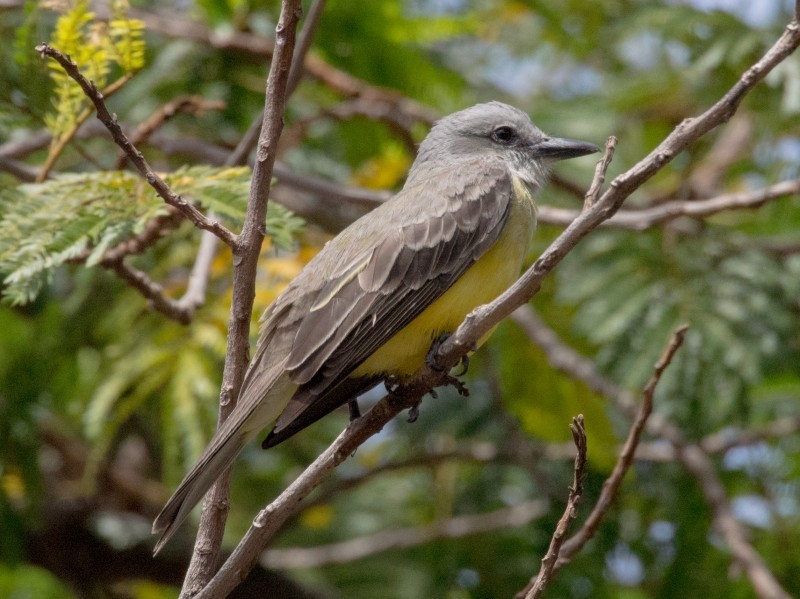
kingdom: Animalia
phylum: Chordata
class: Aves
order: Passeriformes
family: Tyrannidae
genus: Tyrannus
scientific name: Tyrannus melancholicus
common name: Tropical kingbird
